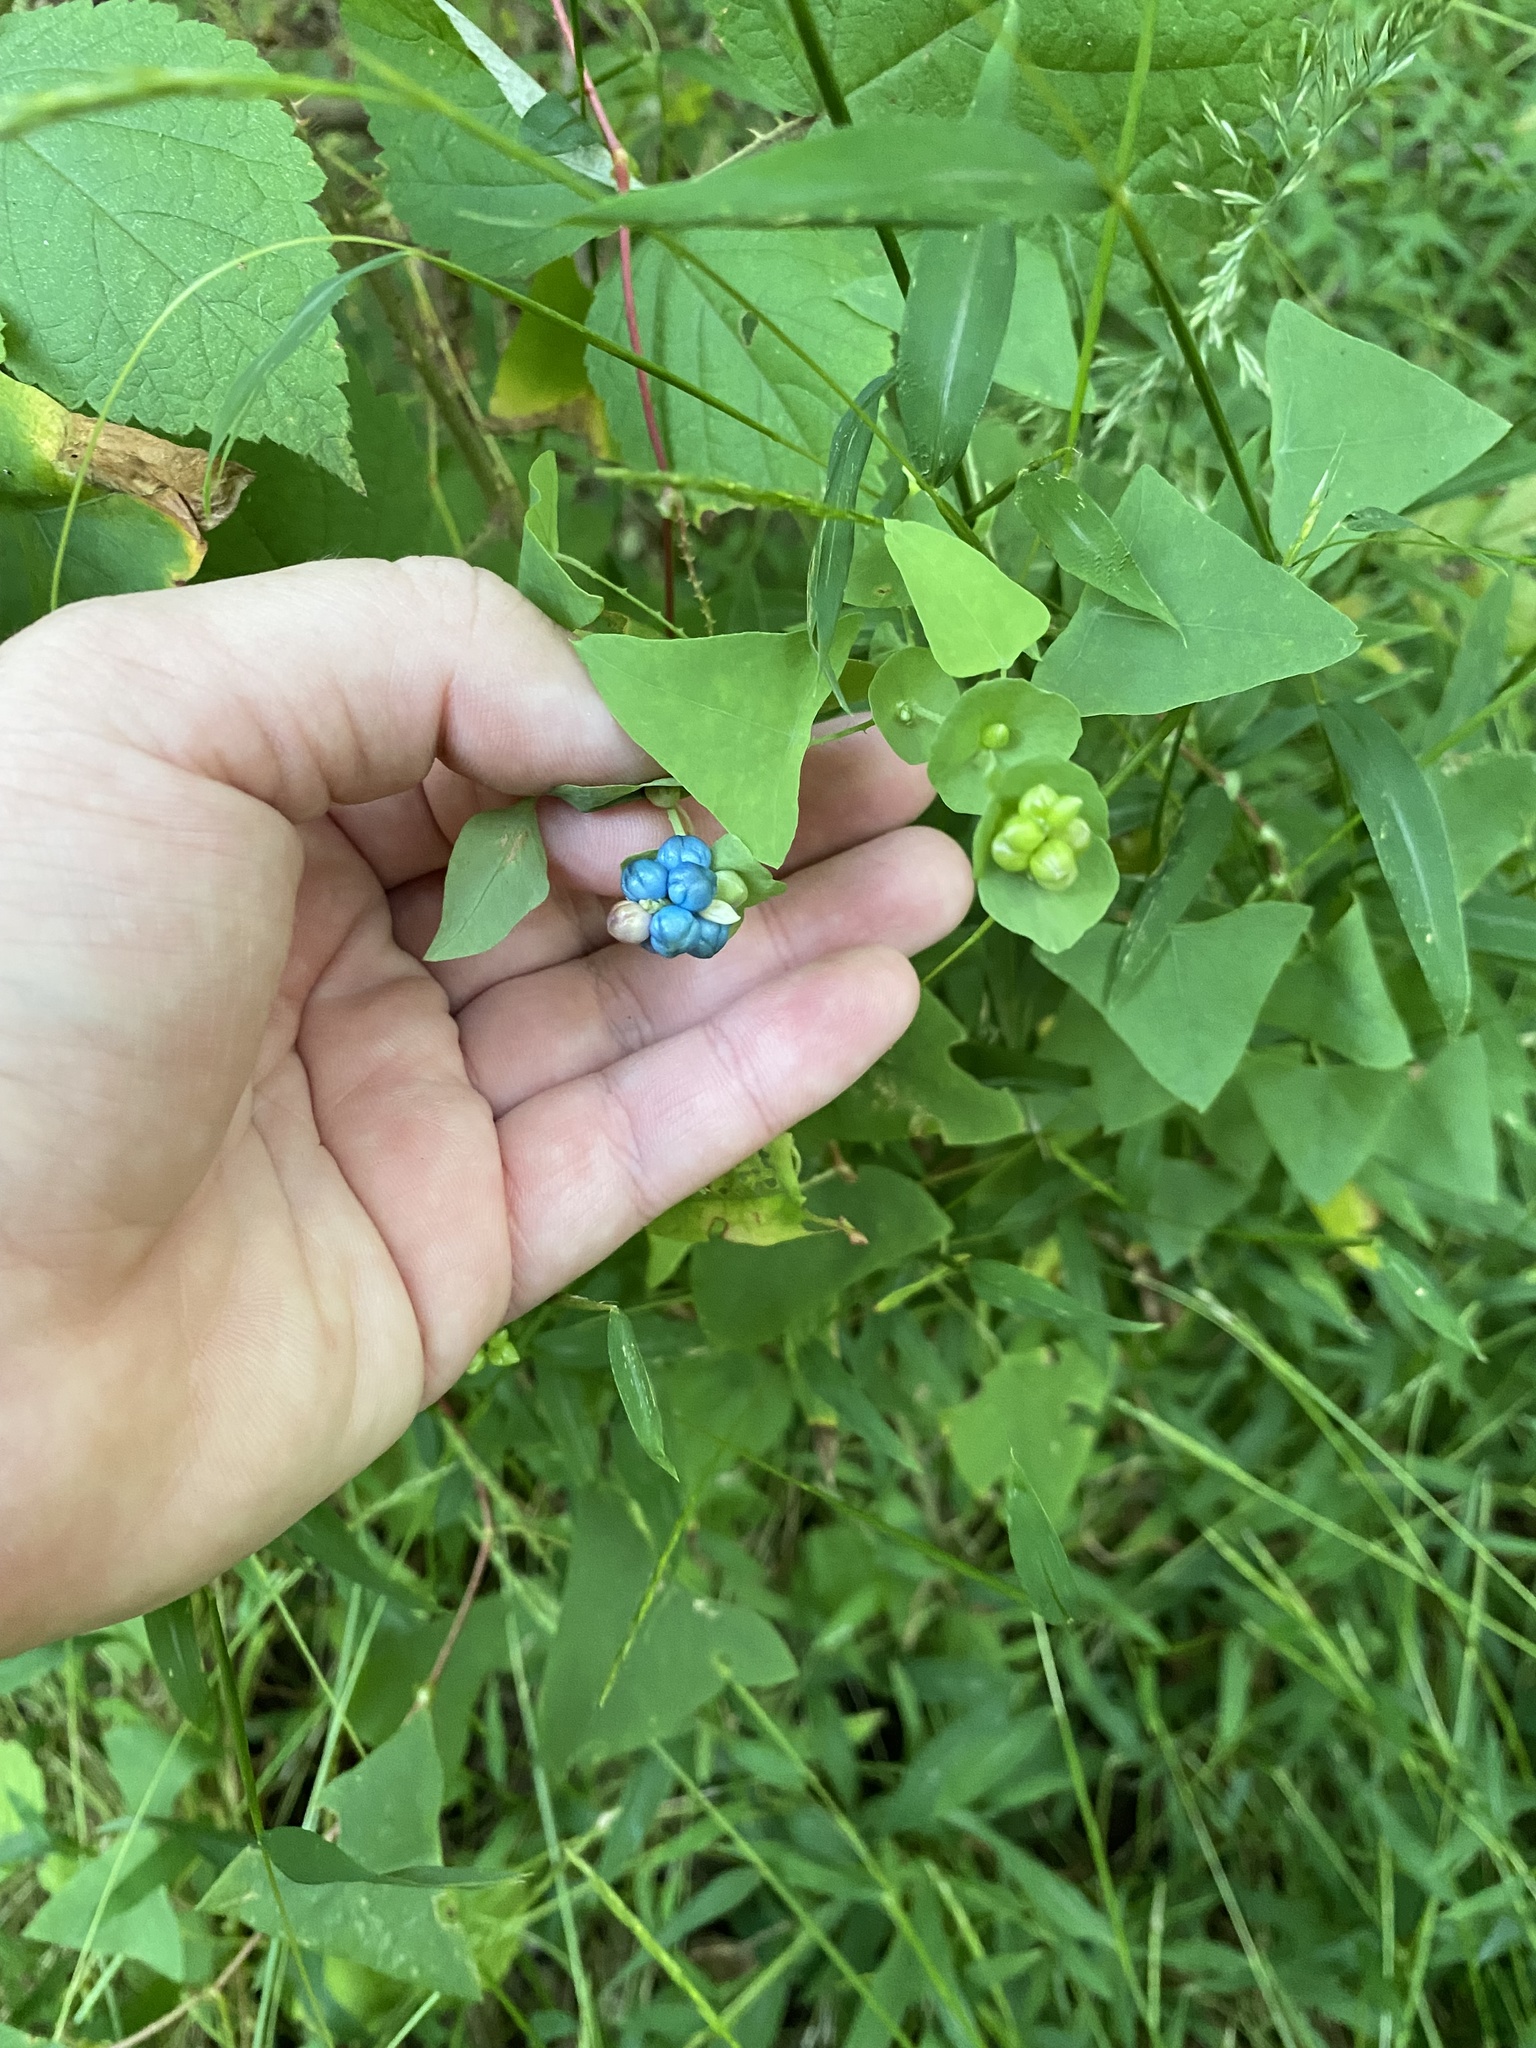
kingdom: Plantae
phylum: Tracheophyta
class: Magnoliopsida
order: Caryophyllales
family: Polygonaceae
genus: Persicaria
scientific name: Persicaria perfoliata
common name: Asiatic tearthumb
